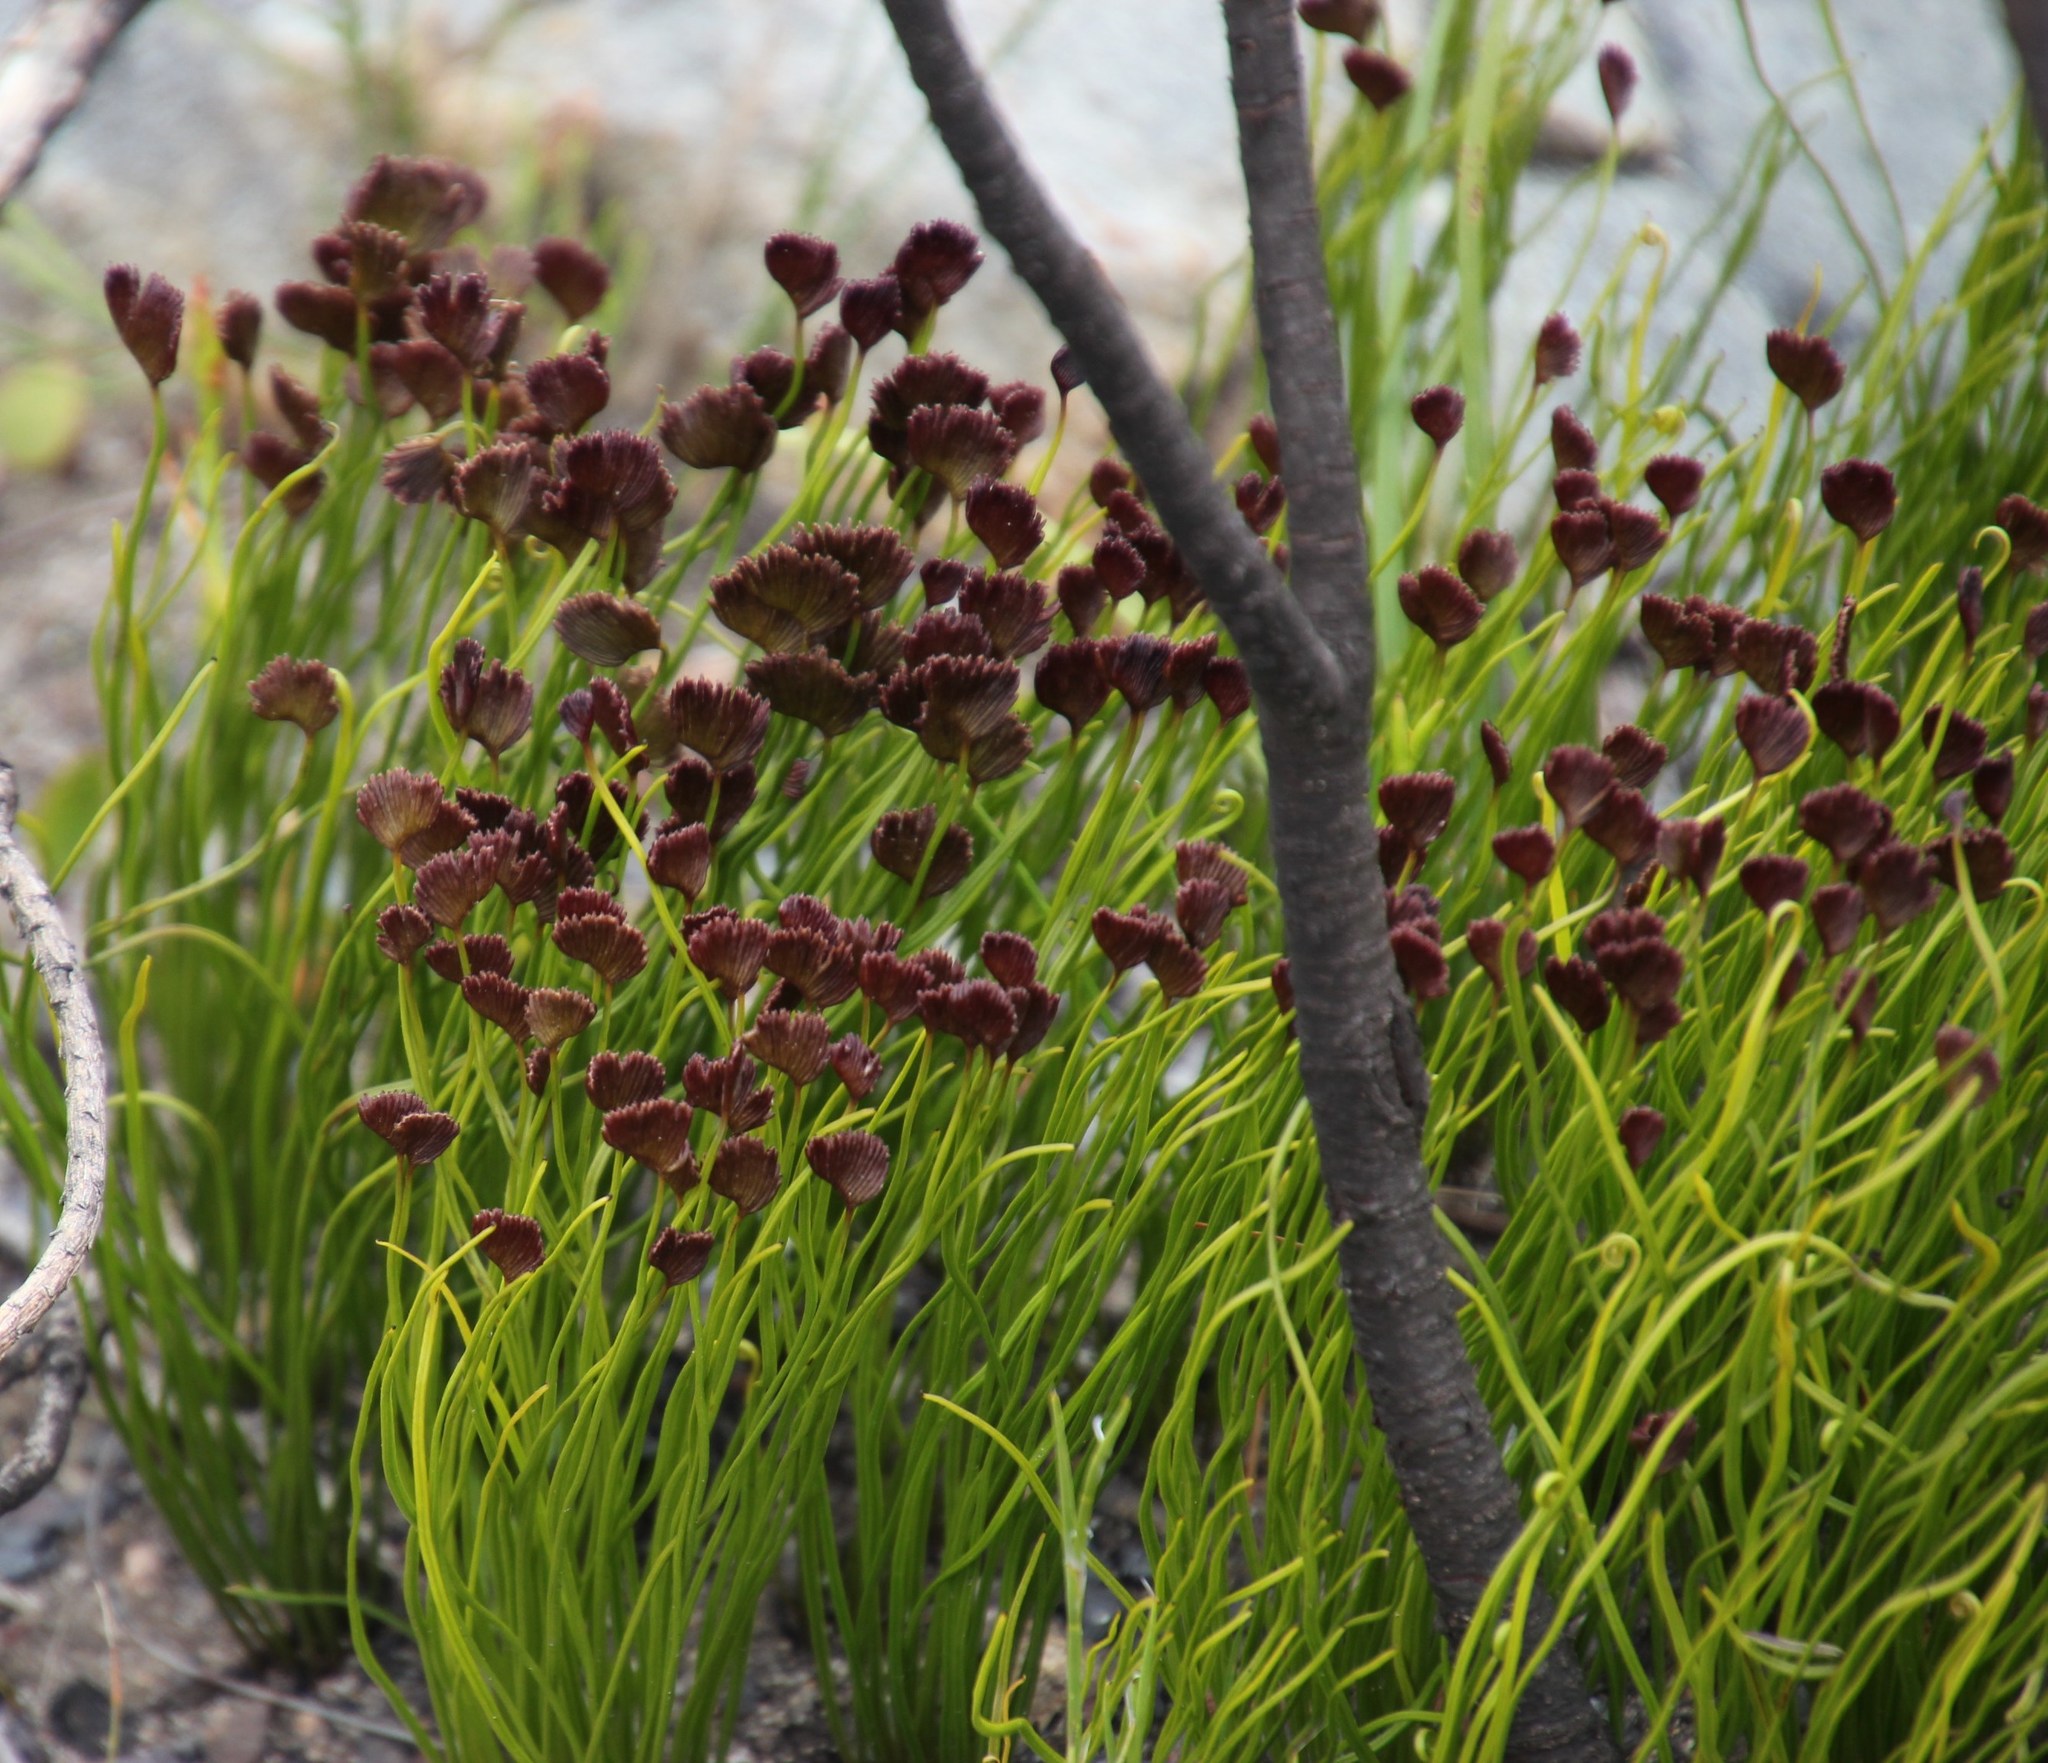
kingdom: Plantae
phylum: Tracheophyta
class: Polypodiopsida
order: Schizaeales
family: Schizaeaceae
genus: Schizaea
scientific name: Schizaea pectinata
